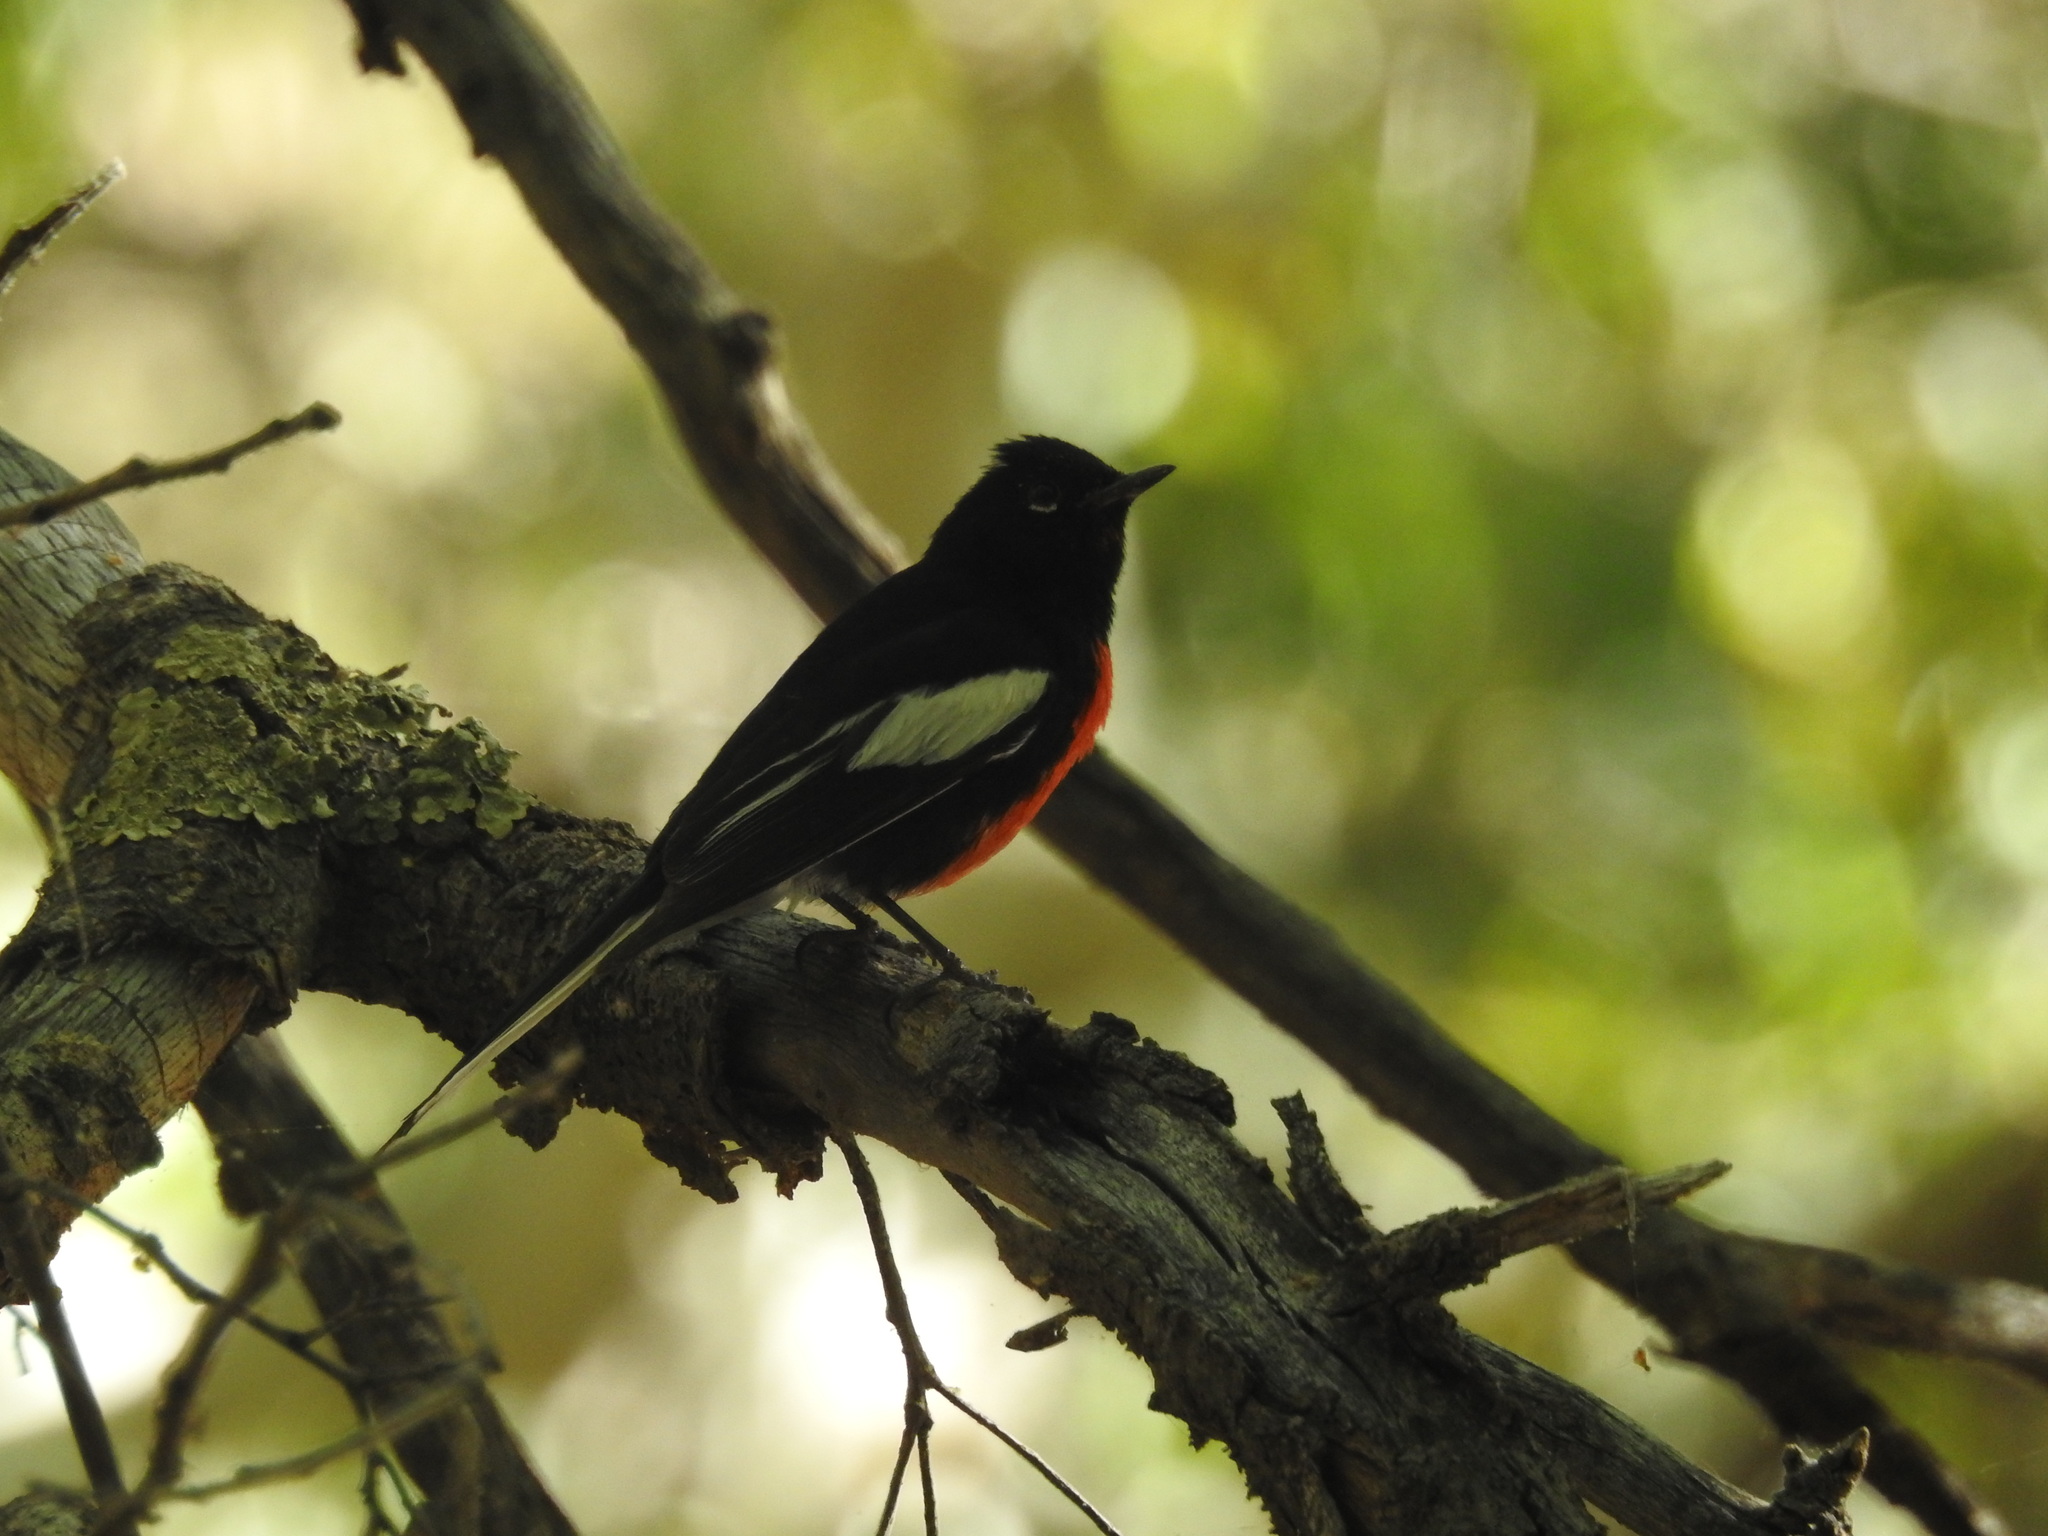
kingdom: Animalia
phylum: Chordata
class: Aves
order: Passeriformes
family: Parulidae
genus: Myioborus
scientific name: Myioborus pictus
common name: Painted whitestart
